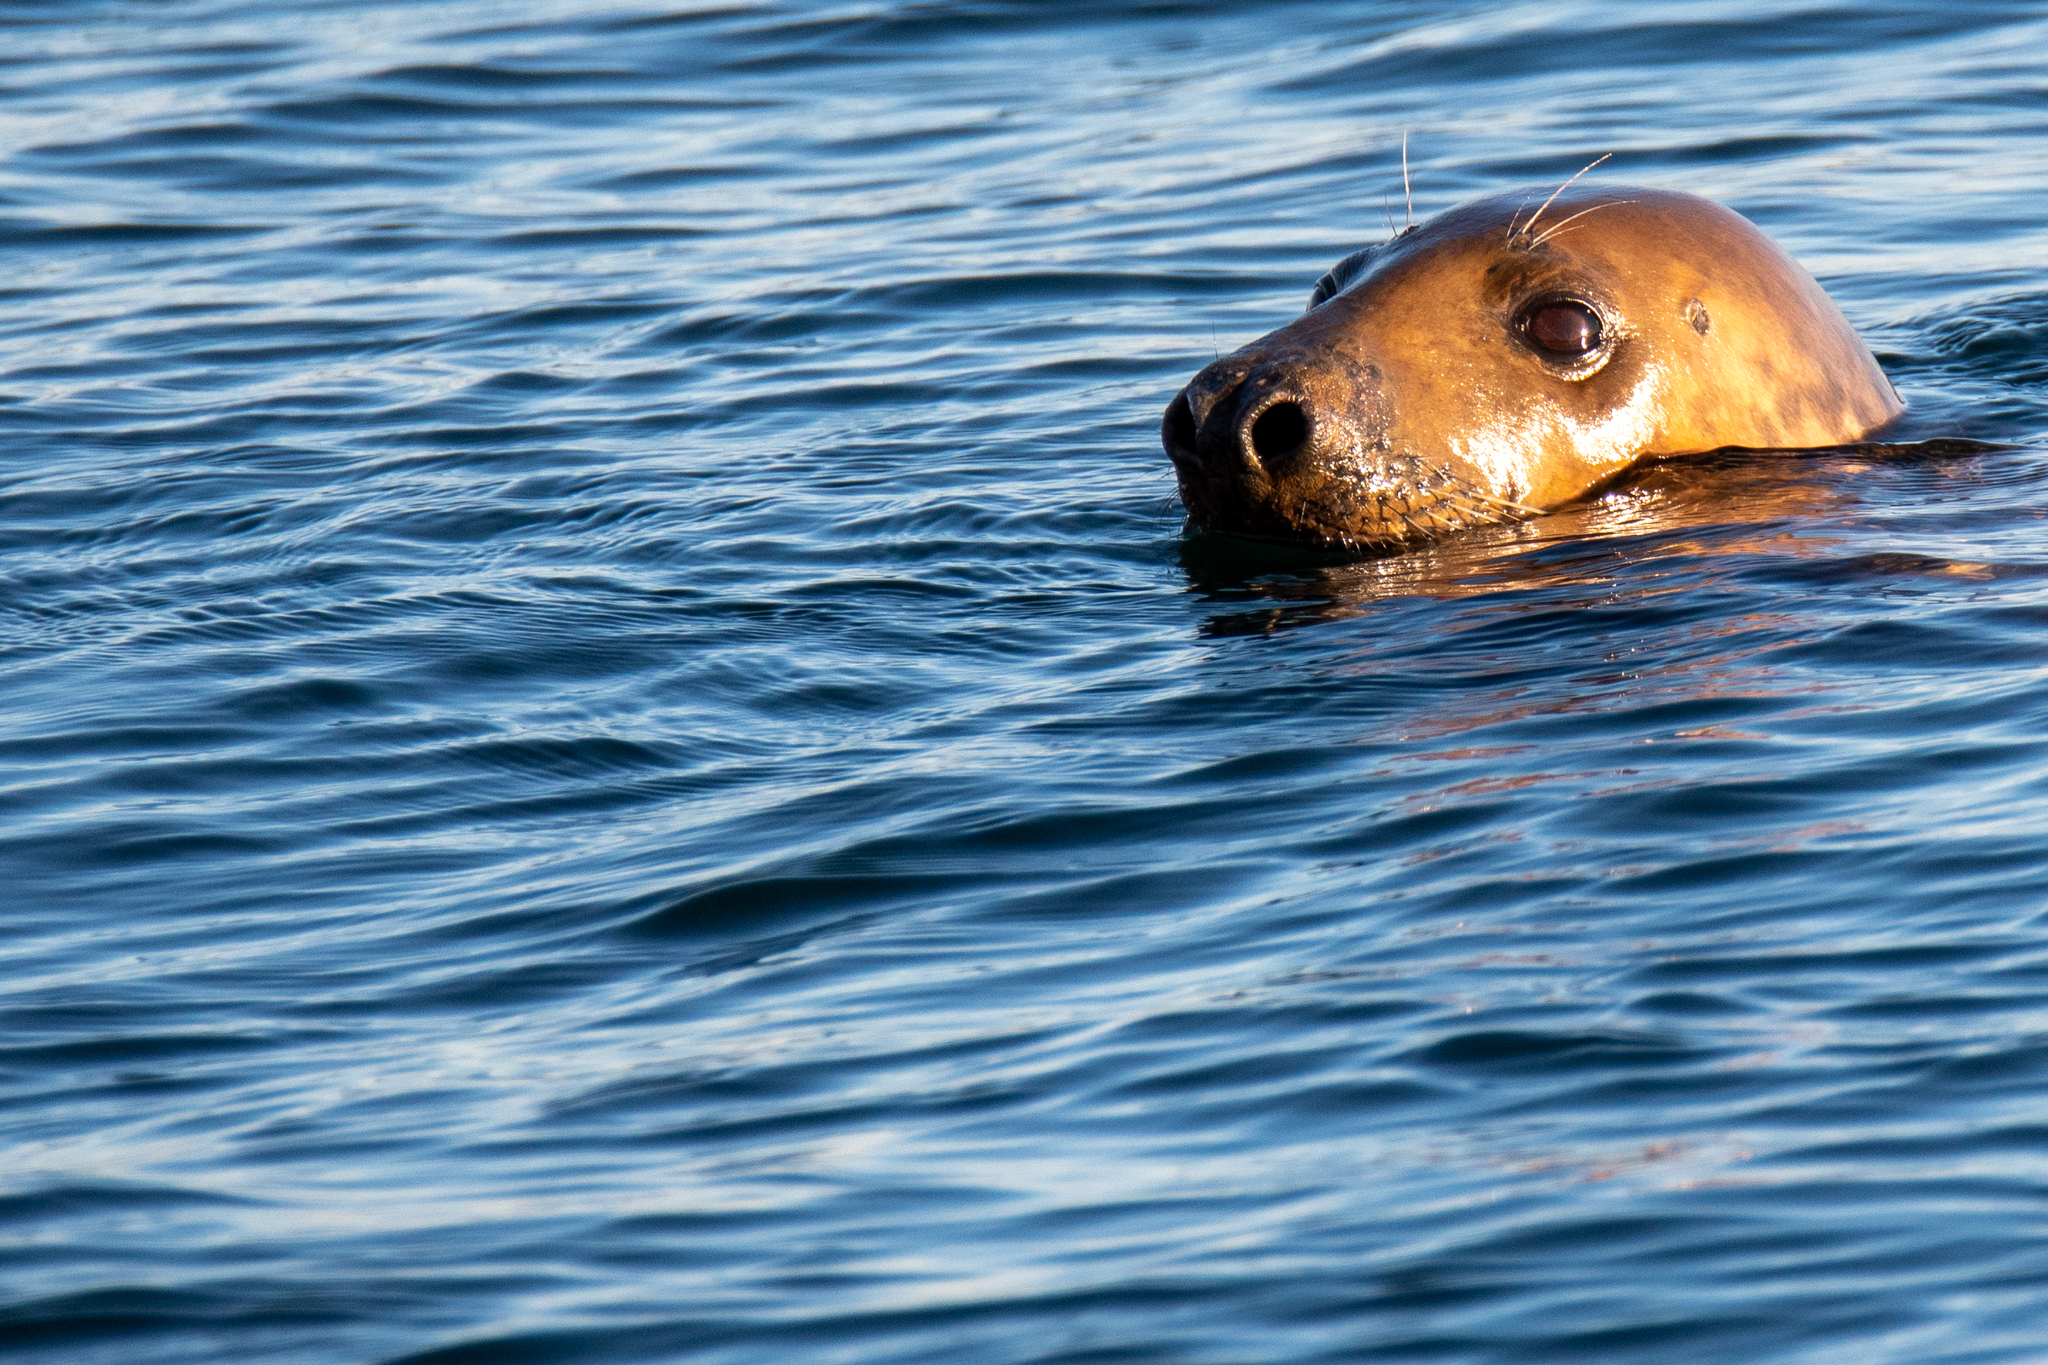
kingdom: Animalia
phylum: Chordata
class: Mammalia
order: Carnivora
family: Phocidae
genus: Halichoerus
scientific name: Halichoerus grypus
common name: Grey seal
